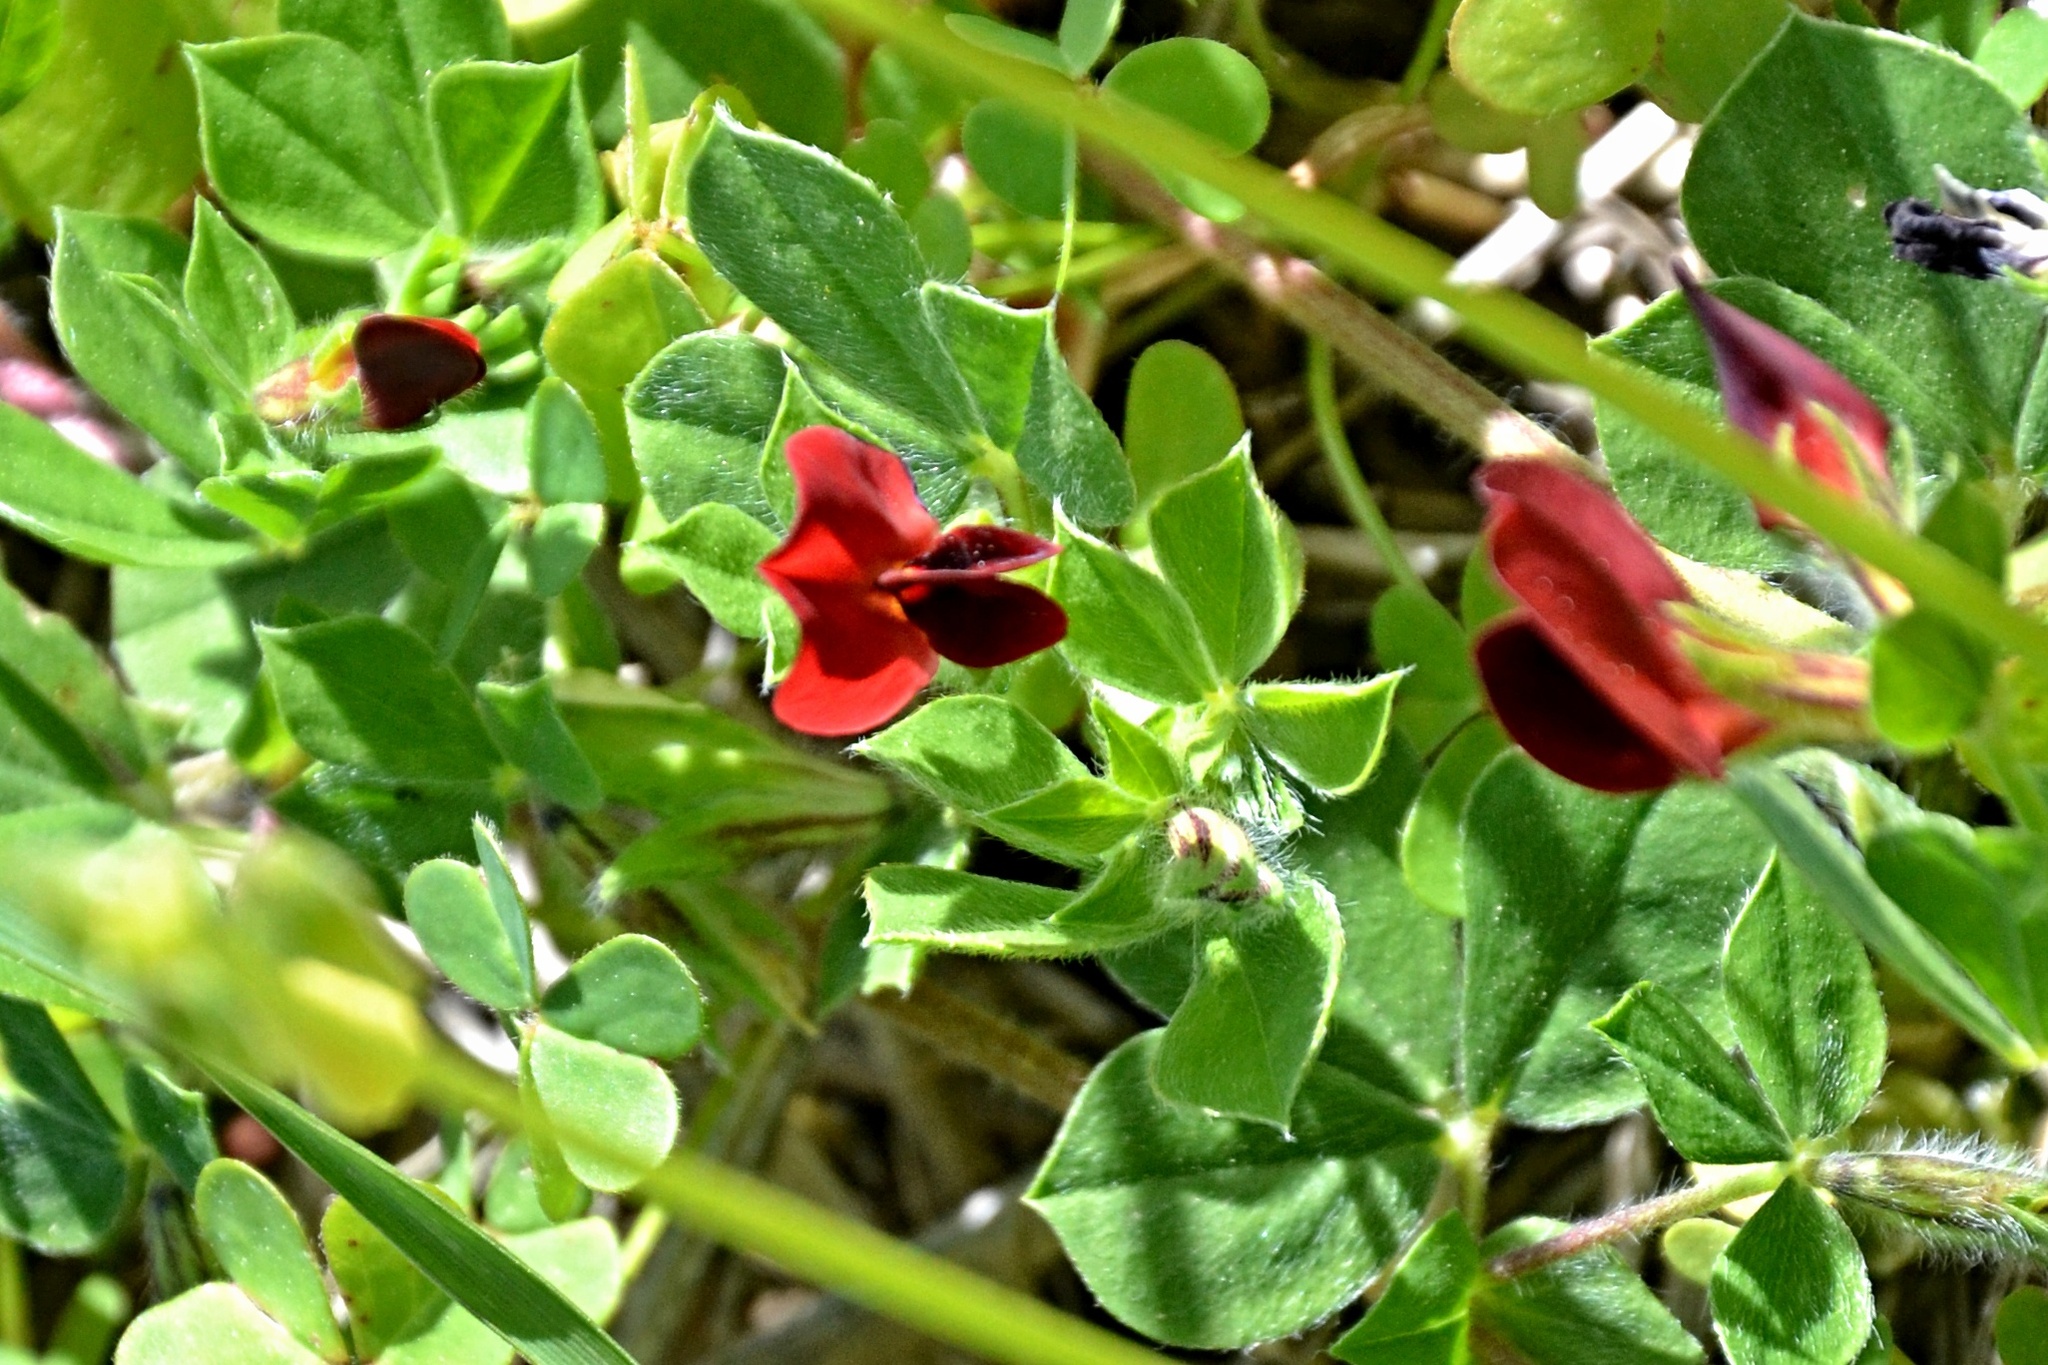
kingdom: Plantae
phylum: Tracheophyta
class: Magnoliopsida
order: Fabales
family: Fabaceae
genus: Lotus
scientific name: Lotus tetragonolobus
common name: Asparagus-pea
